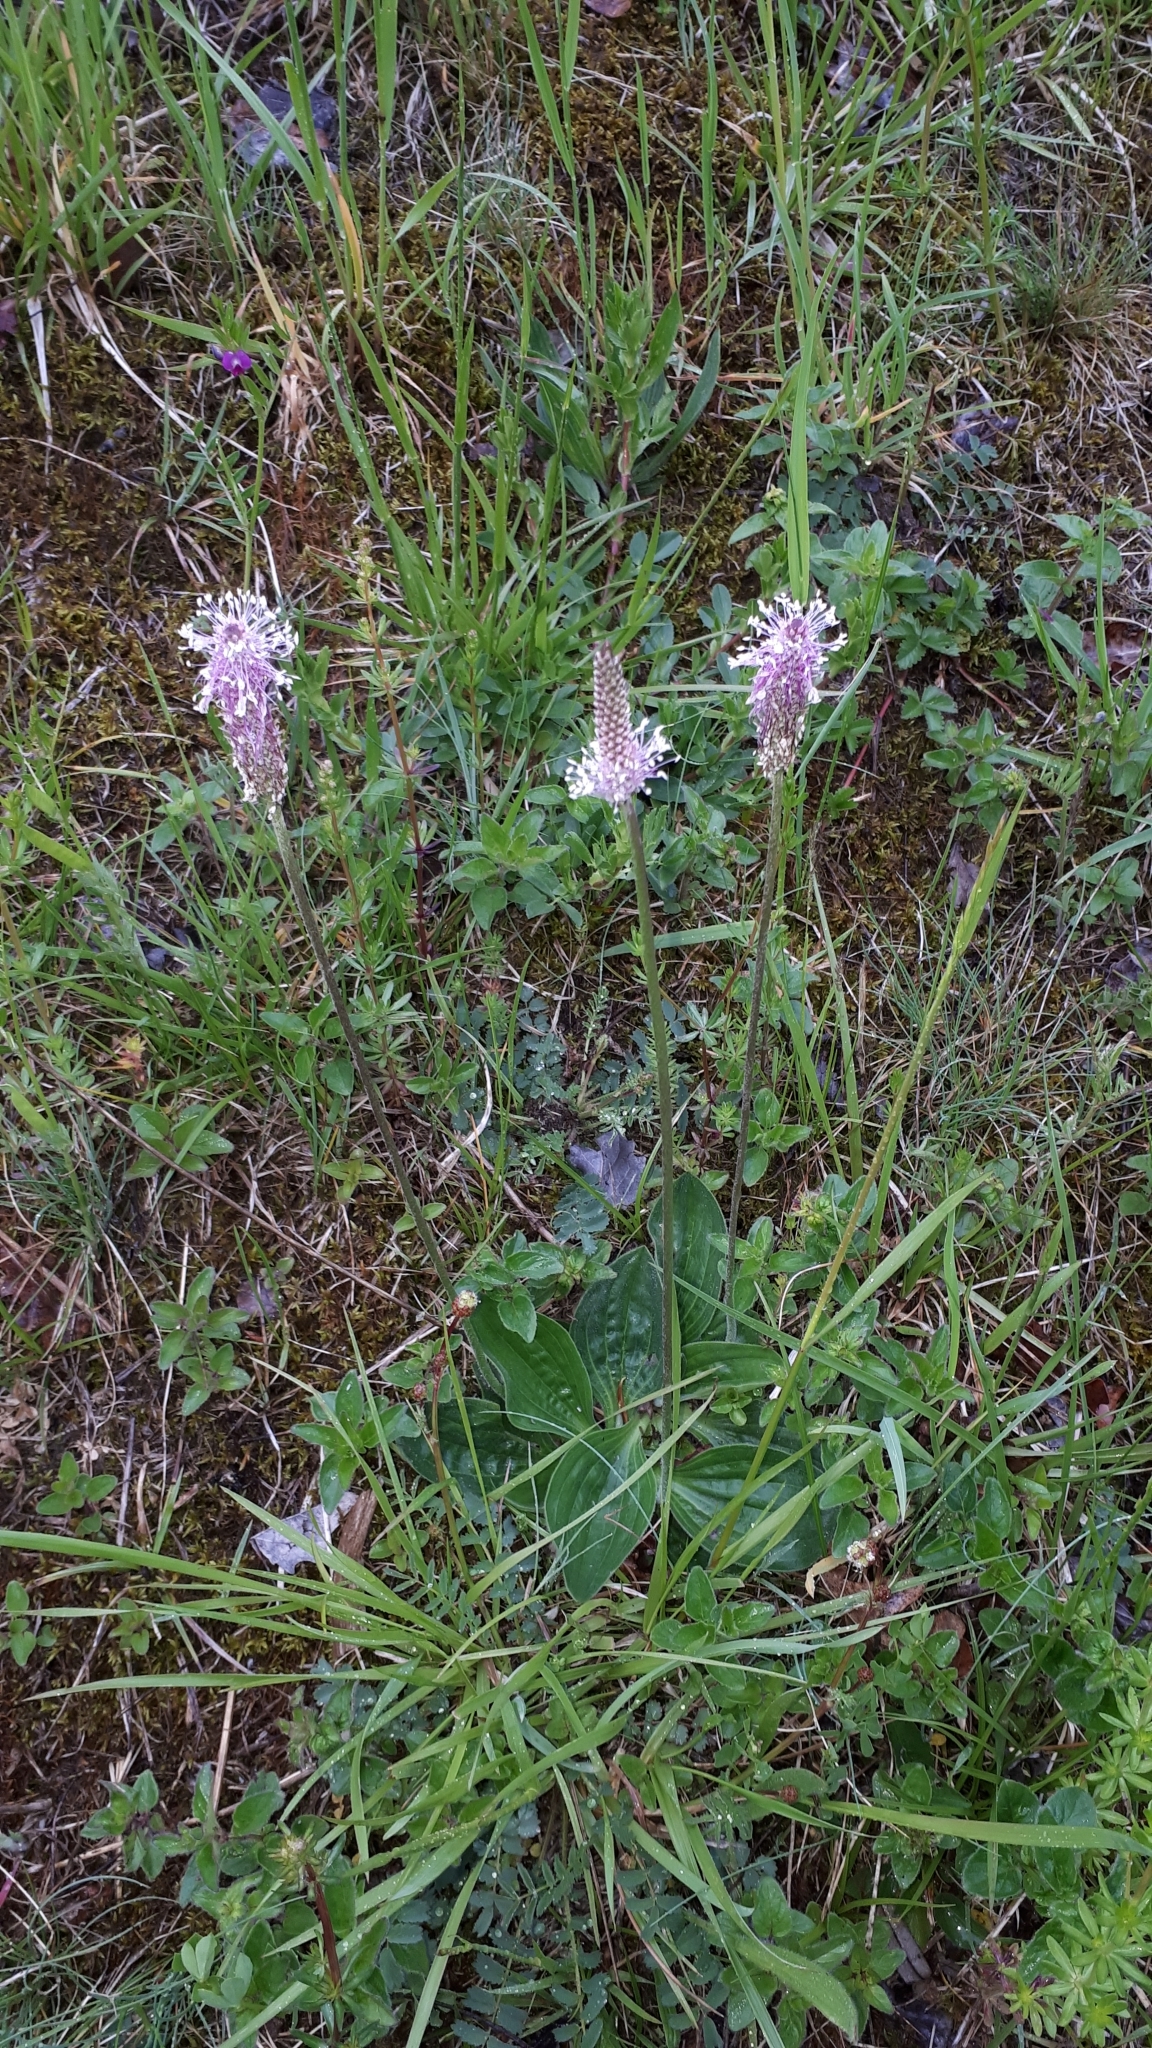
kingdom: Plantae
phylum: Tracheophyta
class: Magnoliopsida
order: Lamiales
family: Plantaginaceae
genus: Plantago
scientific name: Plantago media
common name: Hoary plantain
